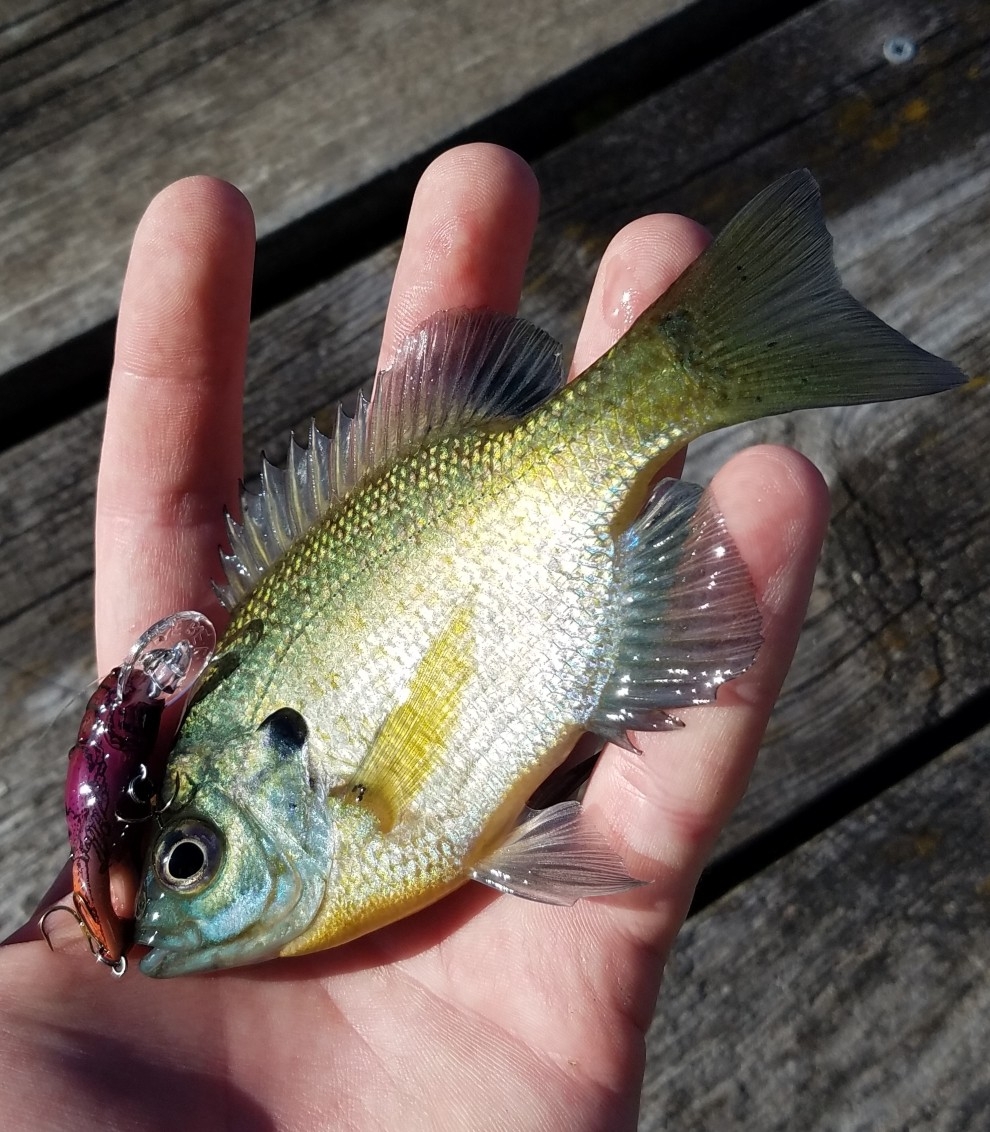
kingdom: Animalia
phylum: Chordata
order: Perciformes
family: Centrarchidae
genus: Lepomis
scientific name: Lepomis macrochirus
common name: Bluegill
